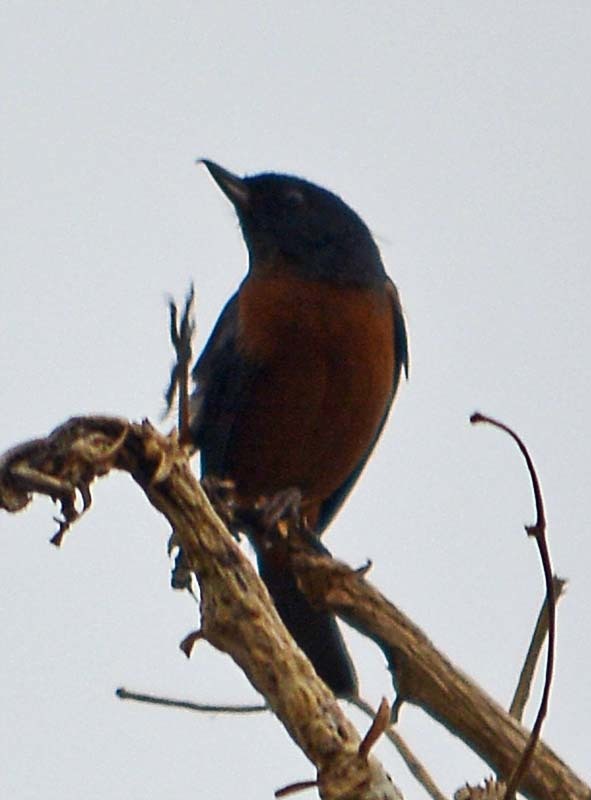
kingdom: Animalia
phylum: Chordata
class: Aves
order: Passeriformes
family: Thraupidae
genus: Diglossa
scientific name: Diglossa baritula
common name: Cinnamon-bellied flowerpiercer
